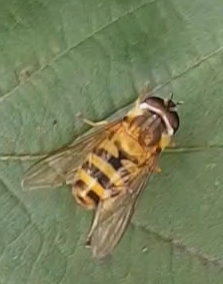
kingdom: Animalia
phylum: Arthropoda
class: Insecta
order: Diptera
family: Syrphidae
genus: Epistrophe
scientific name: Epistrophe grossulariae
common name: Black-horned smoothtail
